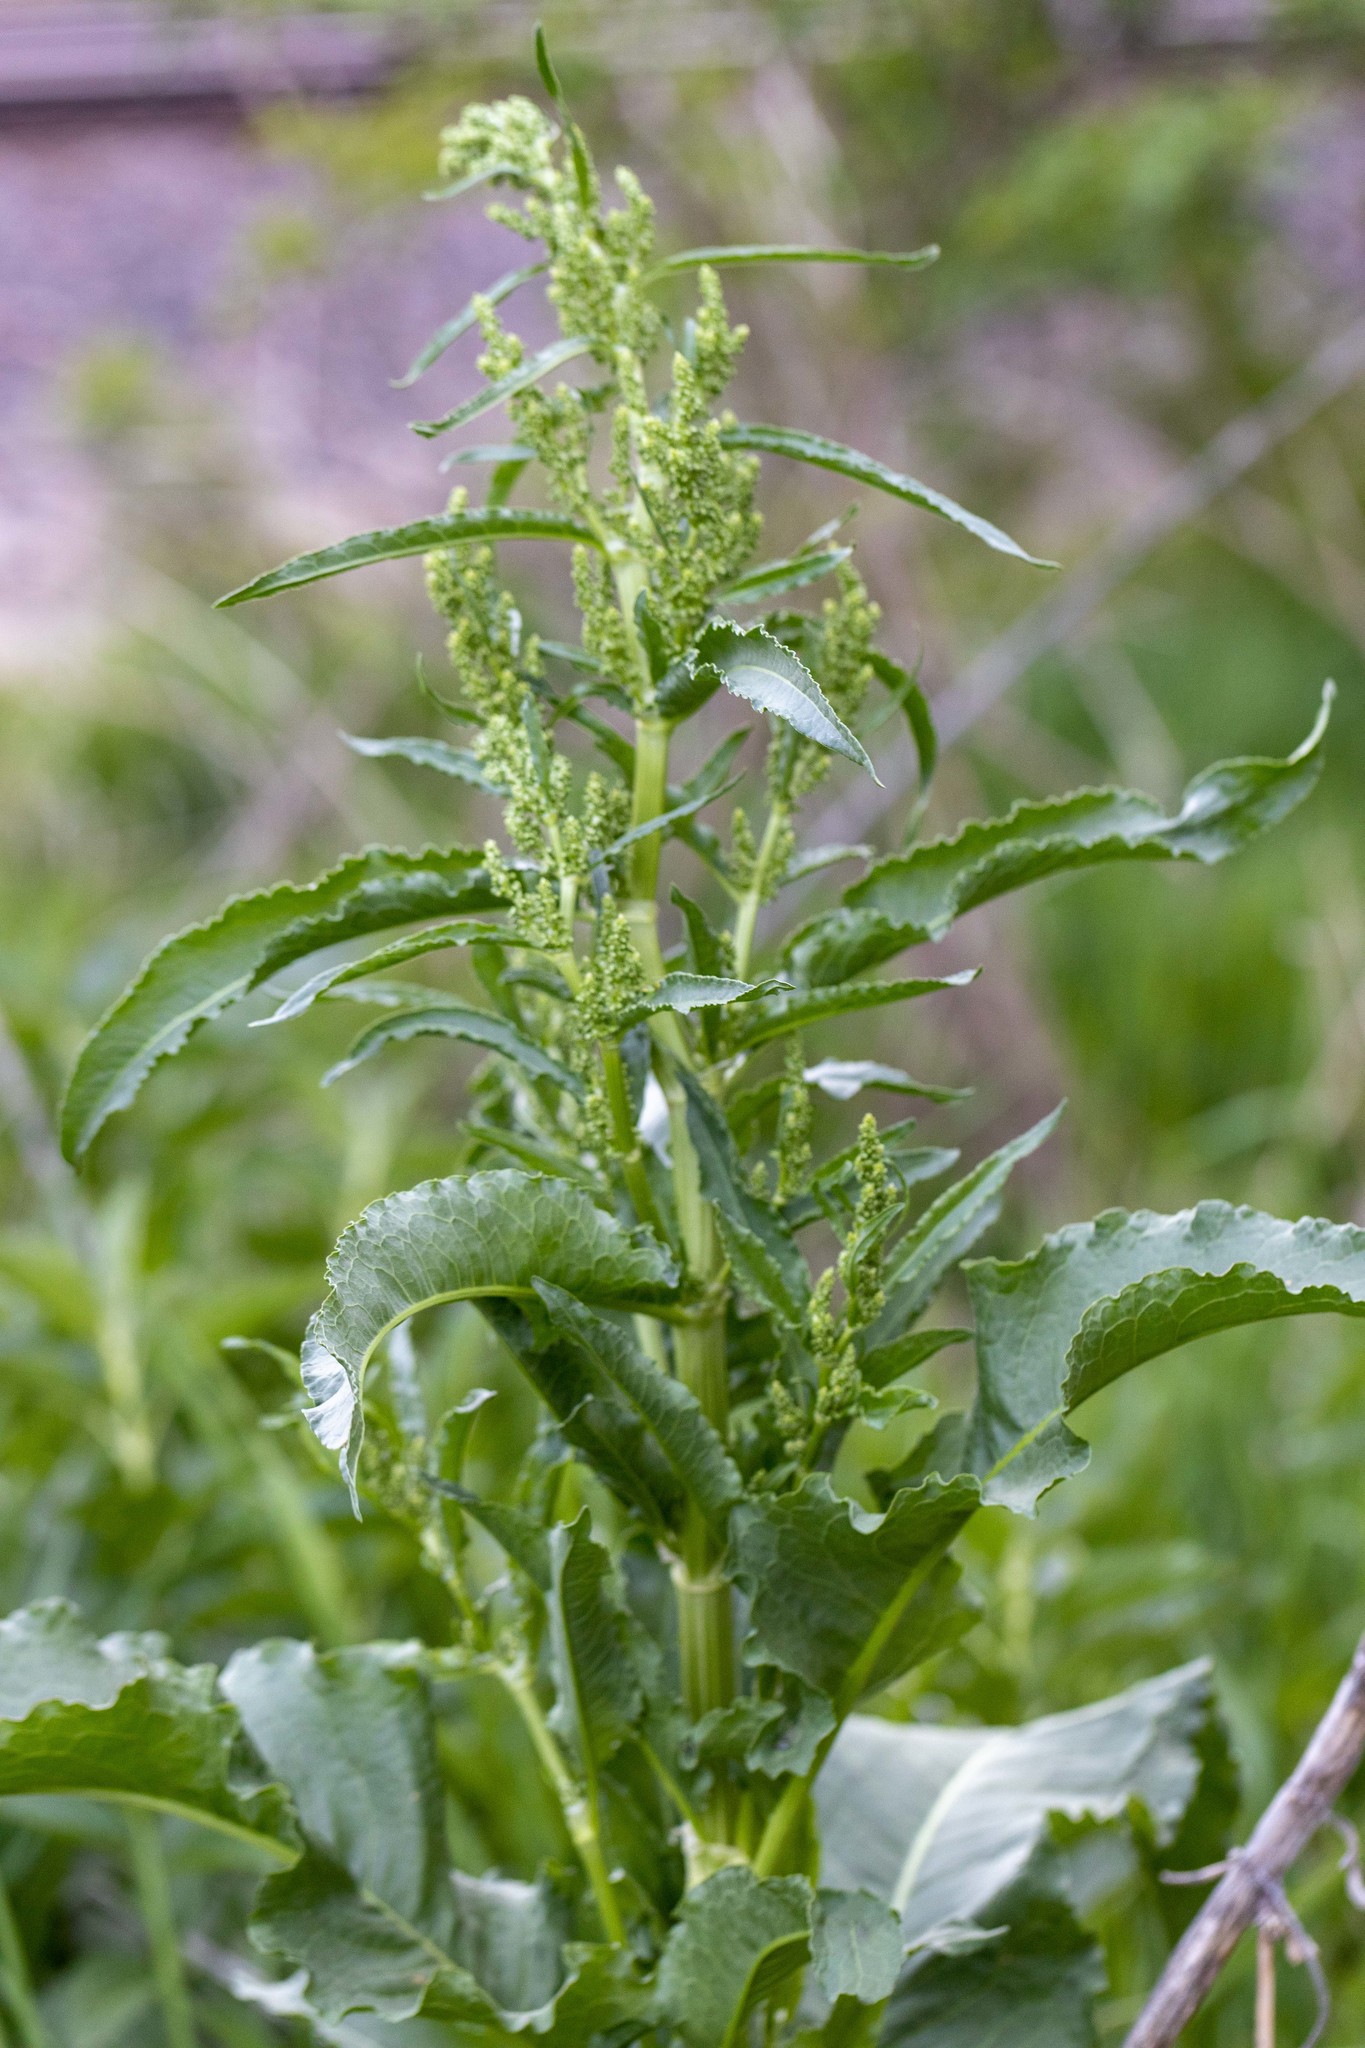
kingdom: Plantae
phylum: Tracheophyta
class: Magnoliopsida
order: Caryophyllales
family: Polygonaceae
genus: Rumex
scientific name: Rumex crispus
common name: Curled dock
